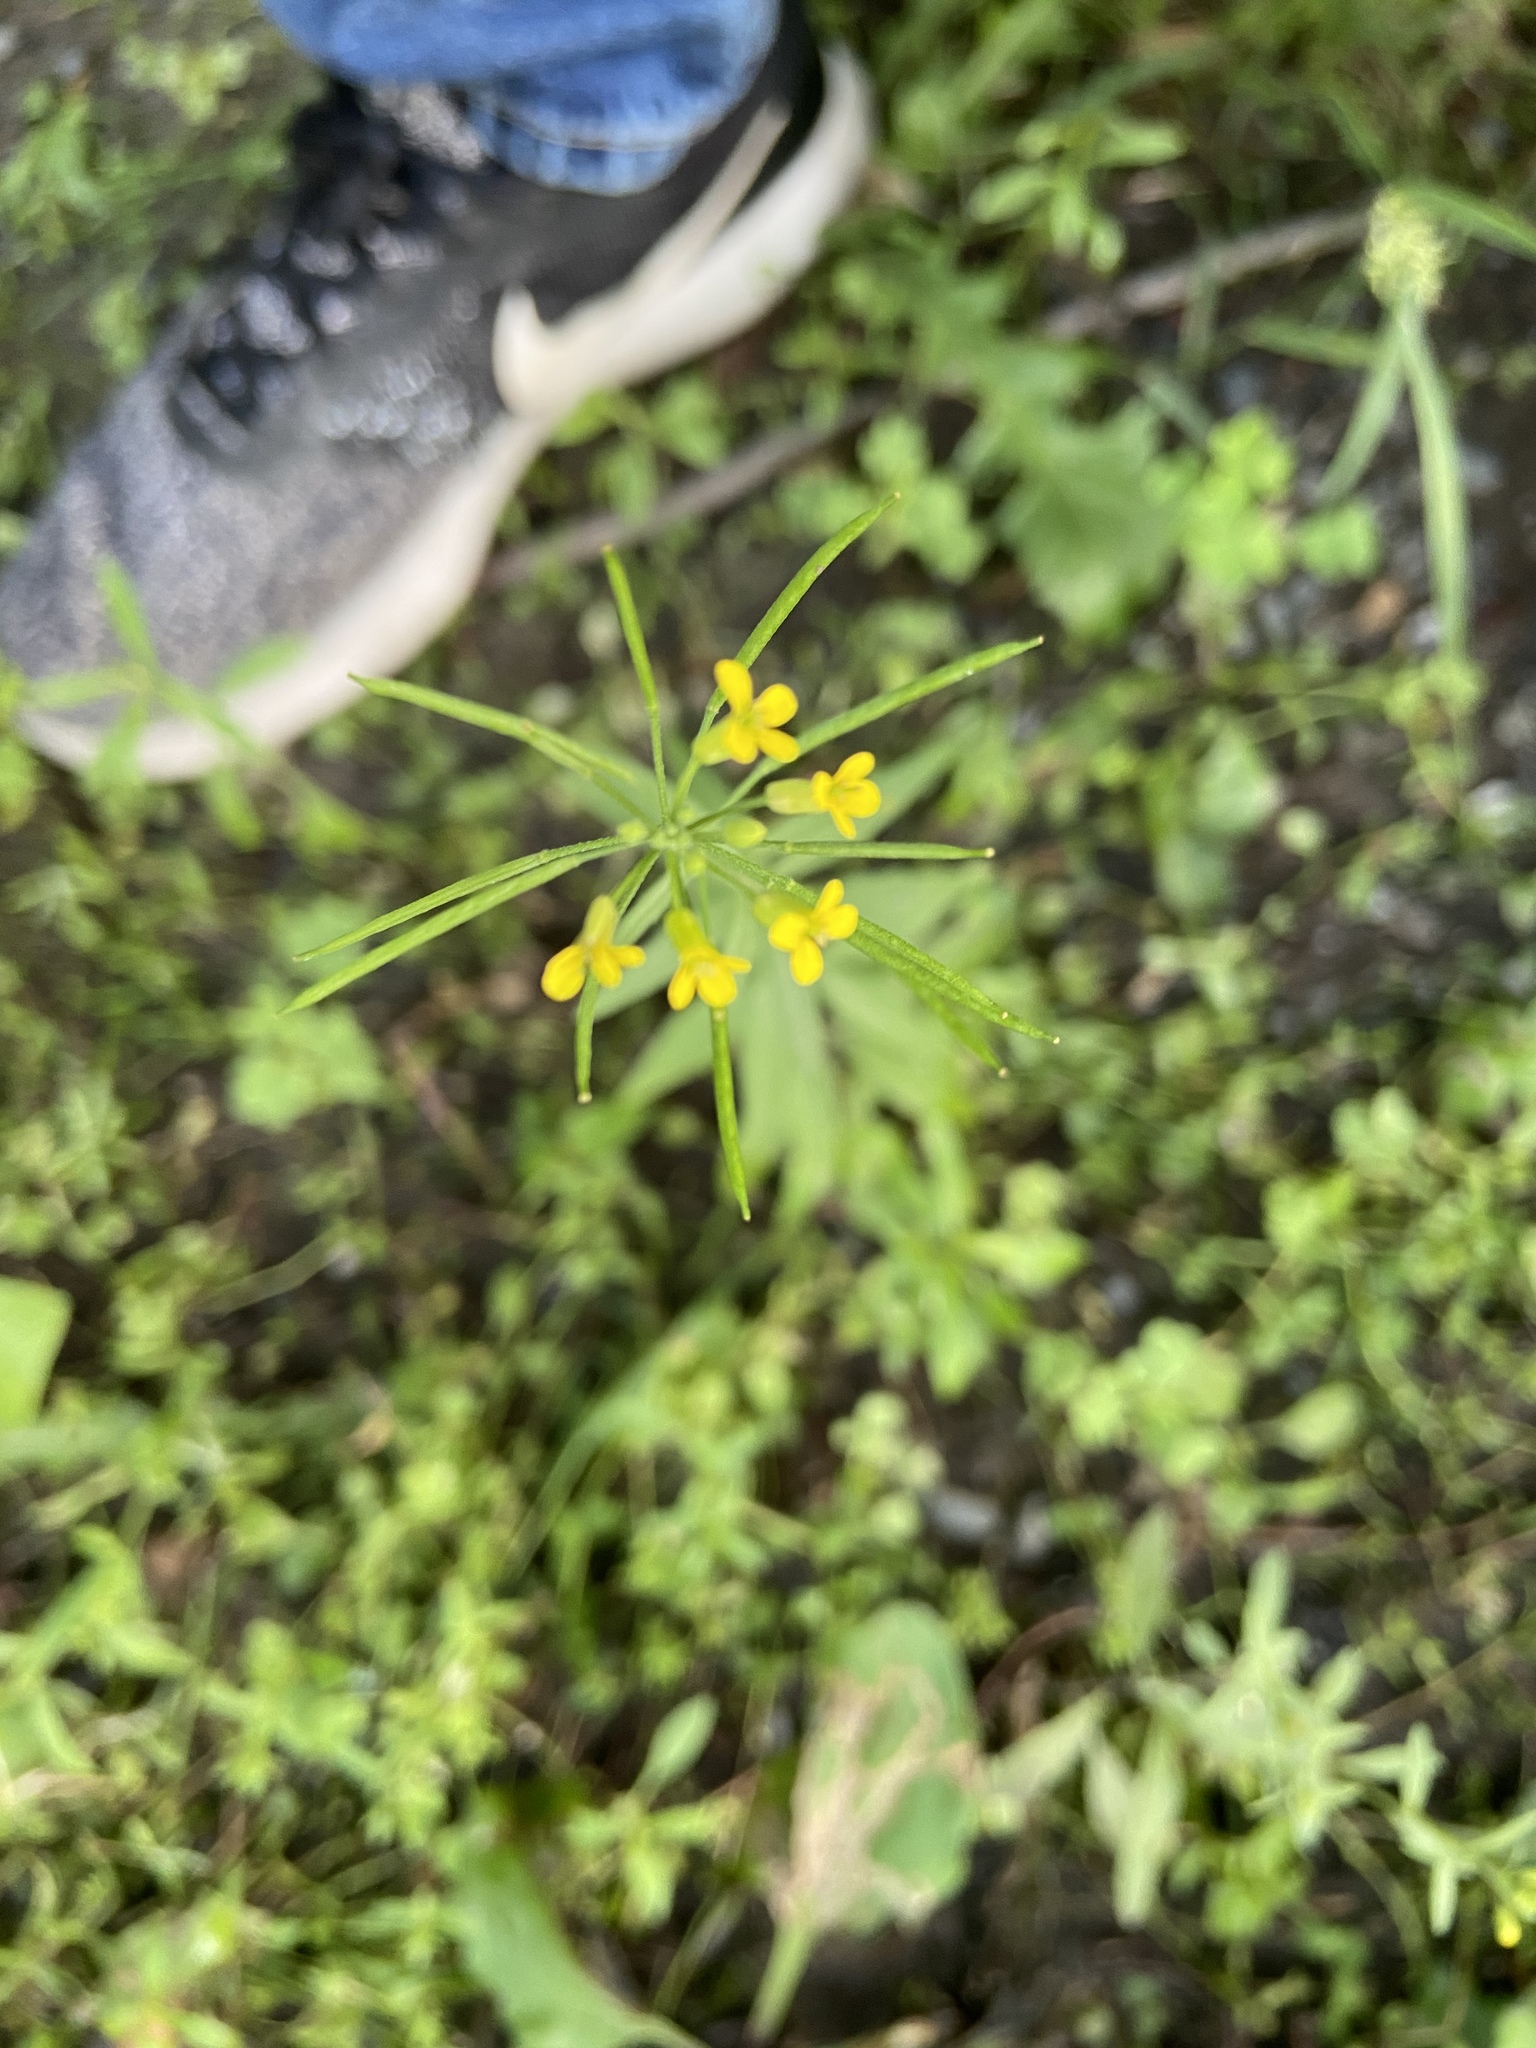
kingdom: Plantae
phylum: Tracheophyta
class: Magnoliopsida
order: Brassicales
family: Brassicaceae
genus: Erysimum
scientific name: Erysimum cheiranthoides
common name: Treacle mustard
